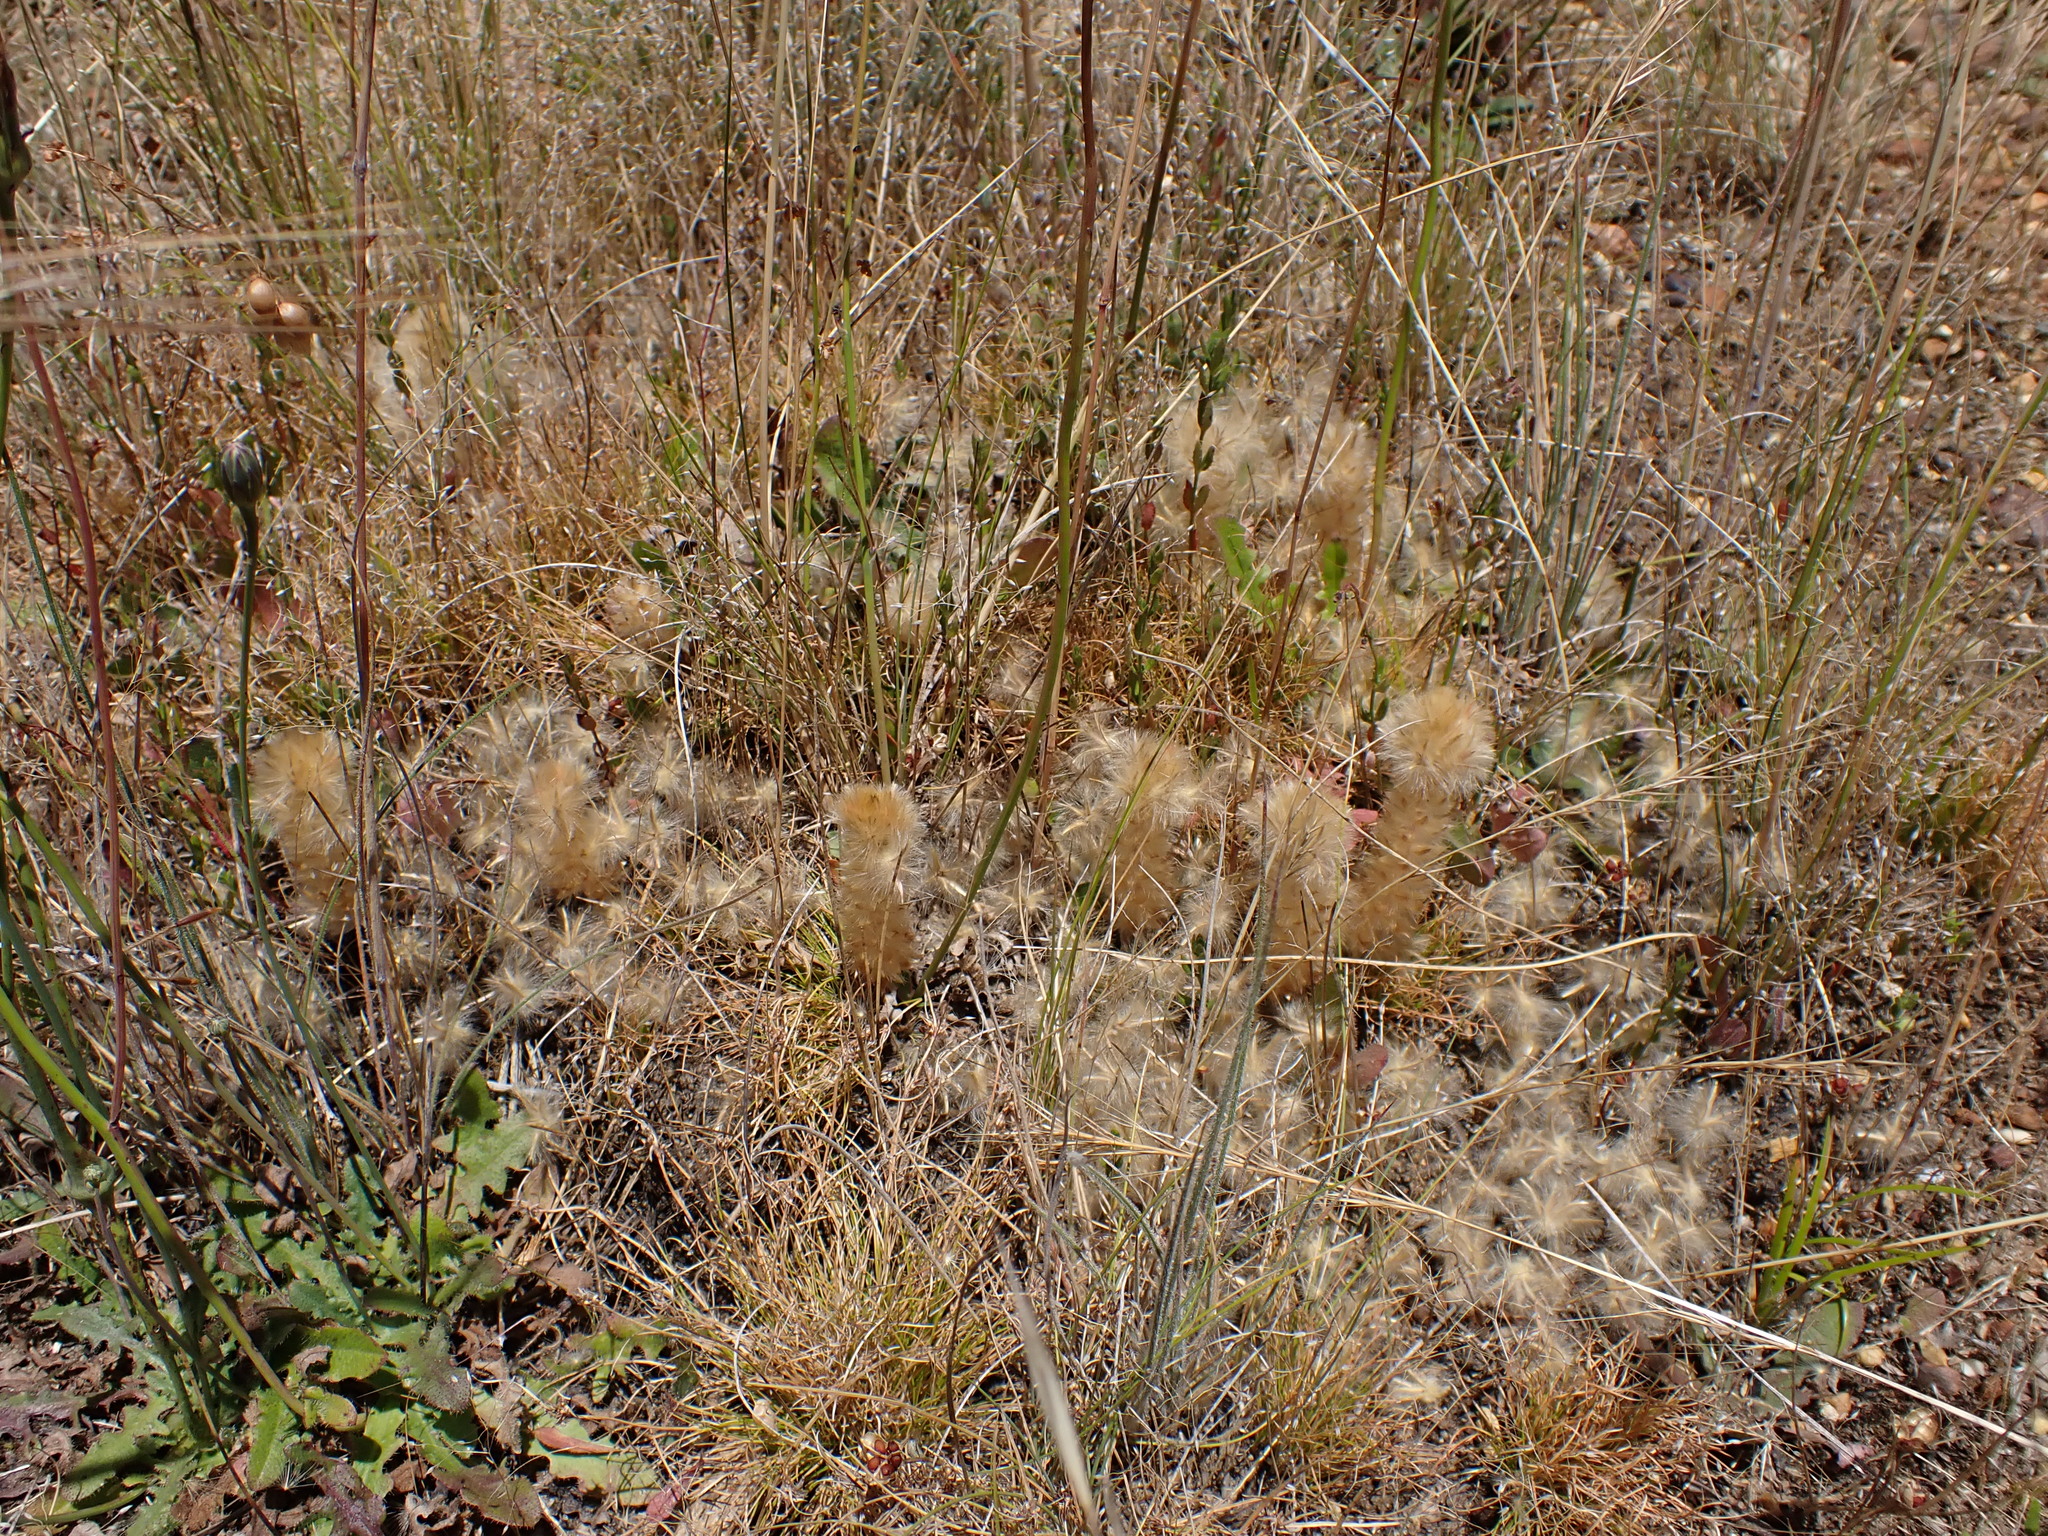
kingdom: Plantae
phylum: Tracheophyta
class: Magnoliopsida
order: Caryophyllales
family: Amaranthaceae
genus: Ptilotus
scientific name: Ptilotus spathulatus
